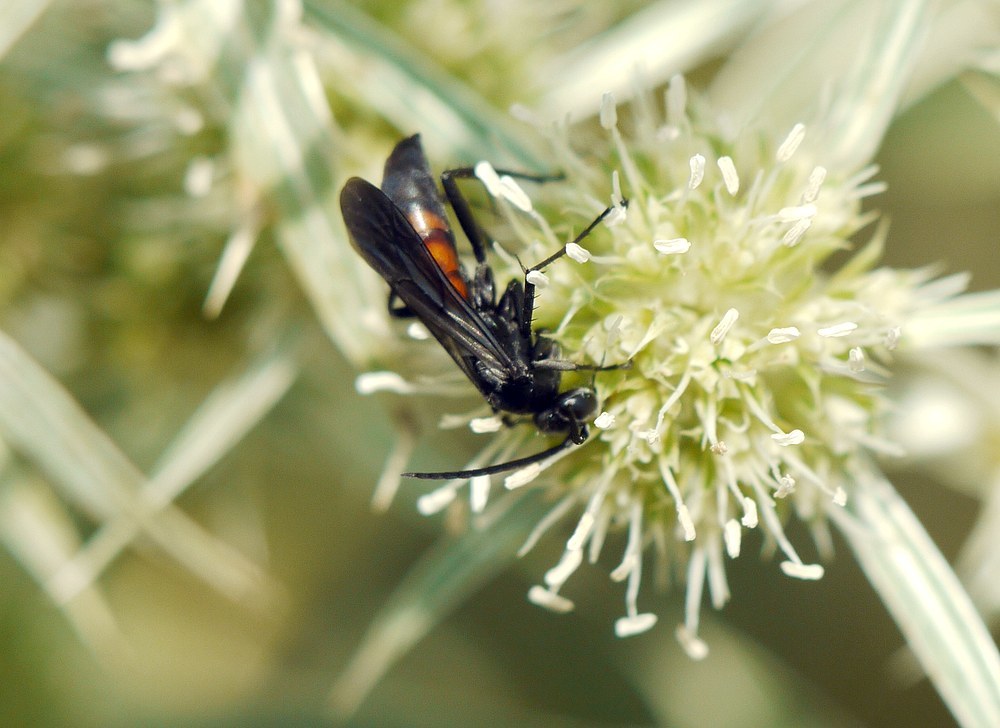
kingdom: Animalia
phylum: Arthropoda
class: Insecta
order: Hymenoptera
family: Pompilidae
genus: Anoplius
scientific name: Anoplius viaticus
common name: Black banded spider wasp
